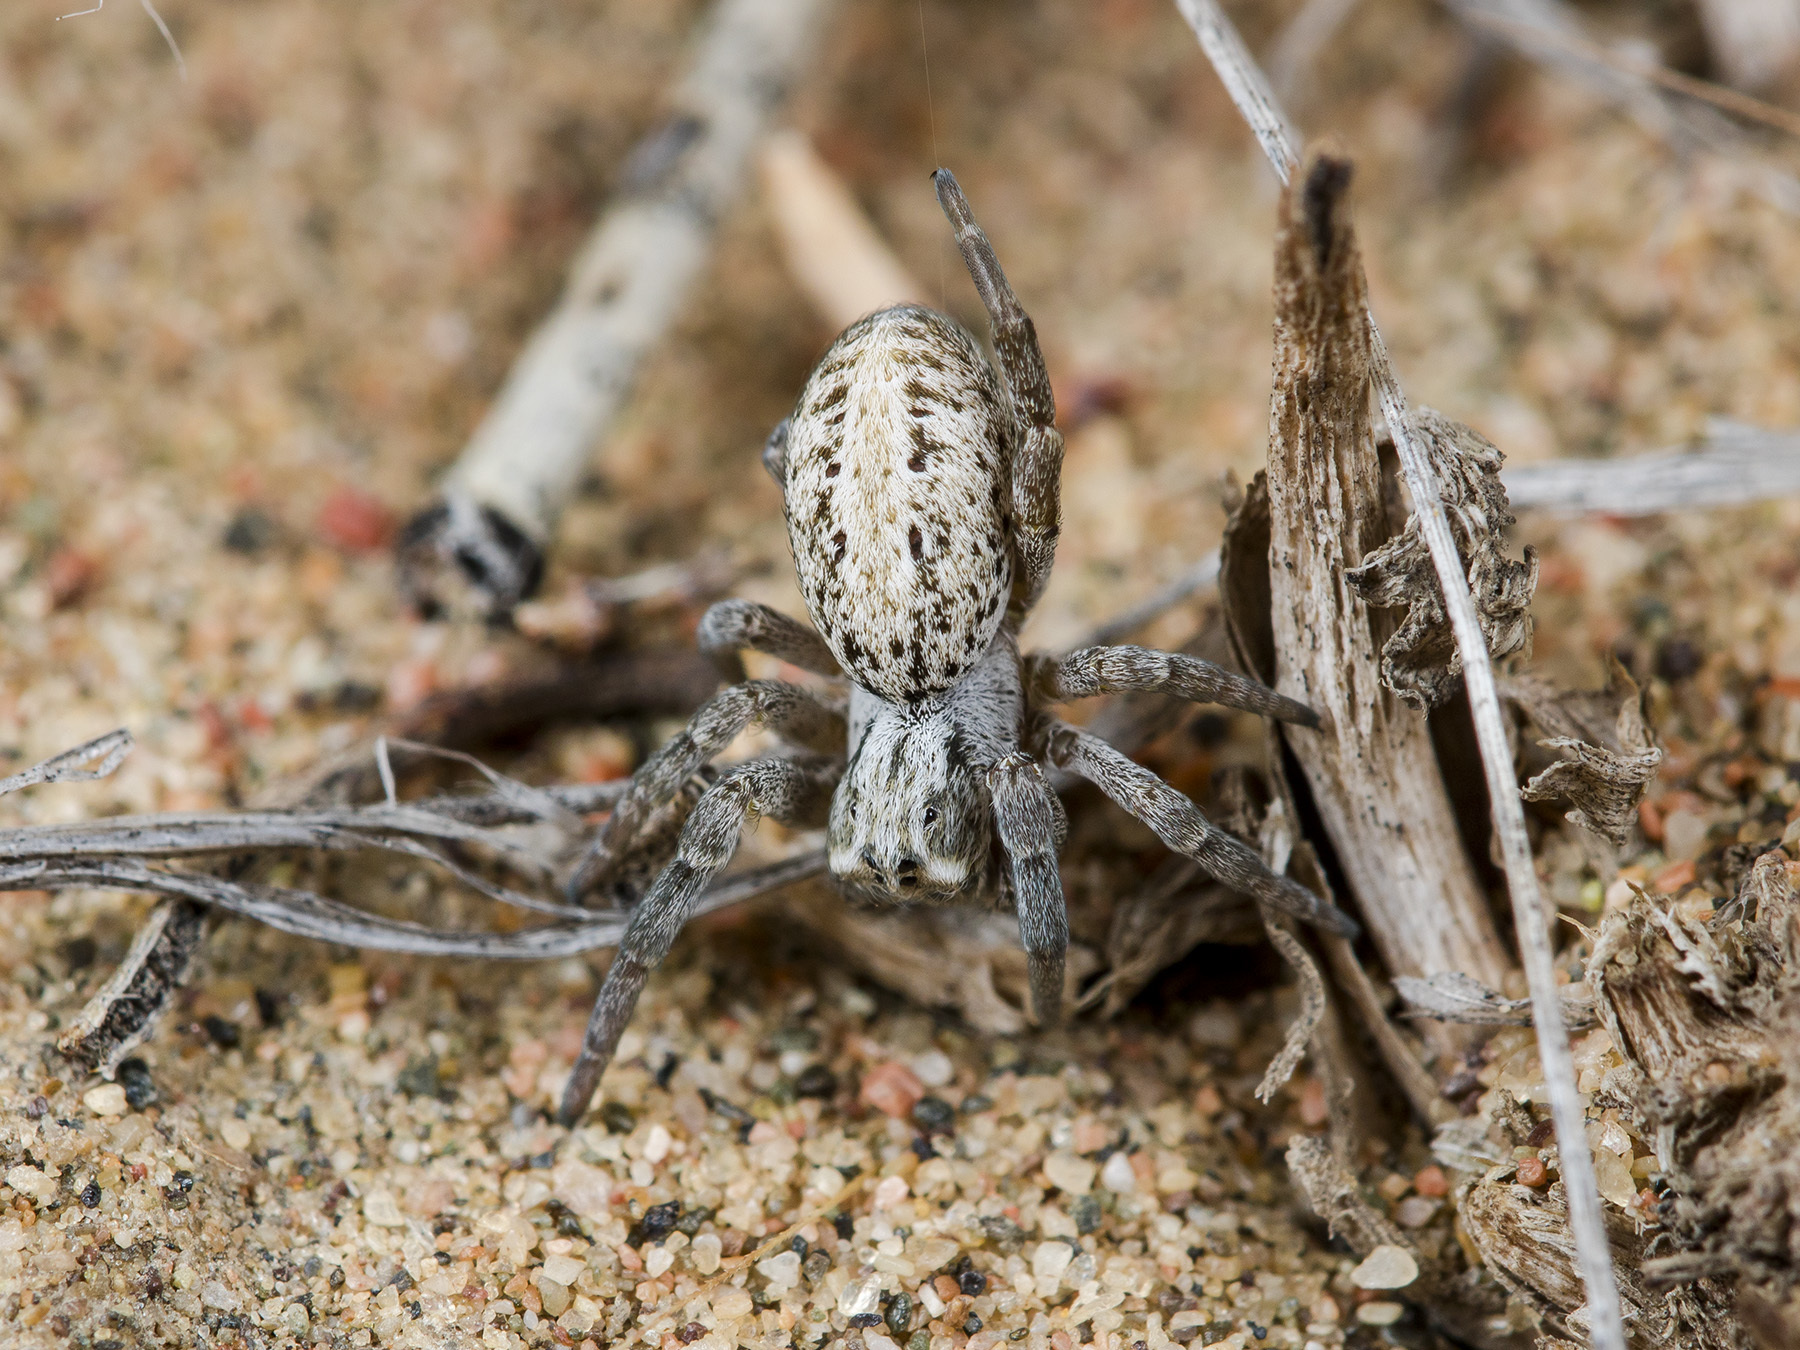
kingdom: Animalia
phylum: Arthropoda
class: Arachnida
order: Araneae
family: Eresidae
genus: Stegodyphus
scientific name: Stegodyphus lineatus
